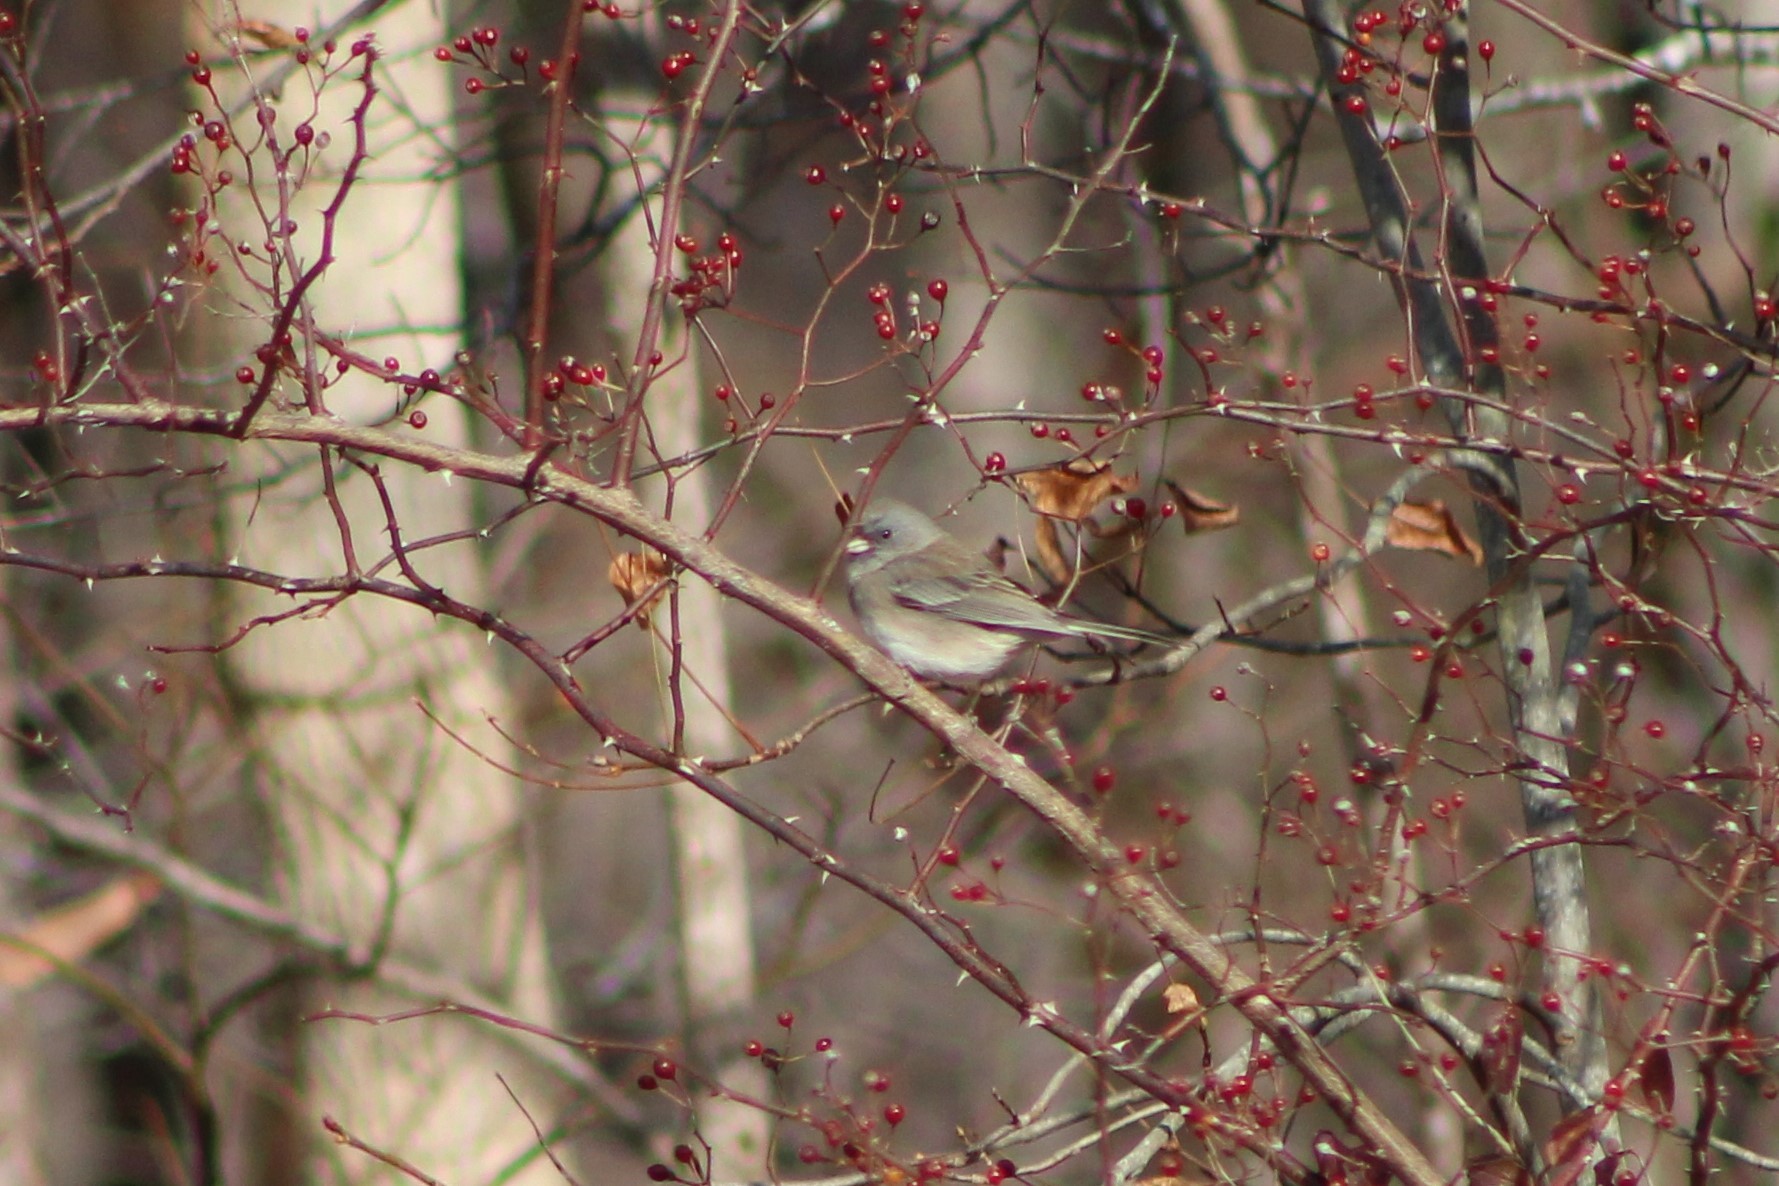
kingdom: Animalia
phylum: Chordata
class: Aves
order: Passeriformes
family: Passerellidae
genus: Junco
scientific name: Junco hyemalis
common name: Dark-eyed junco
